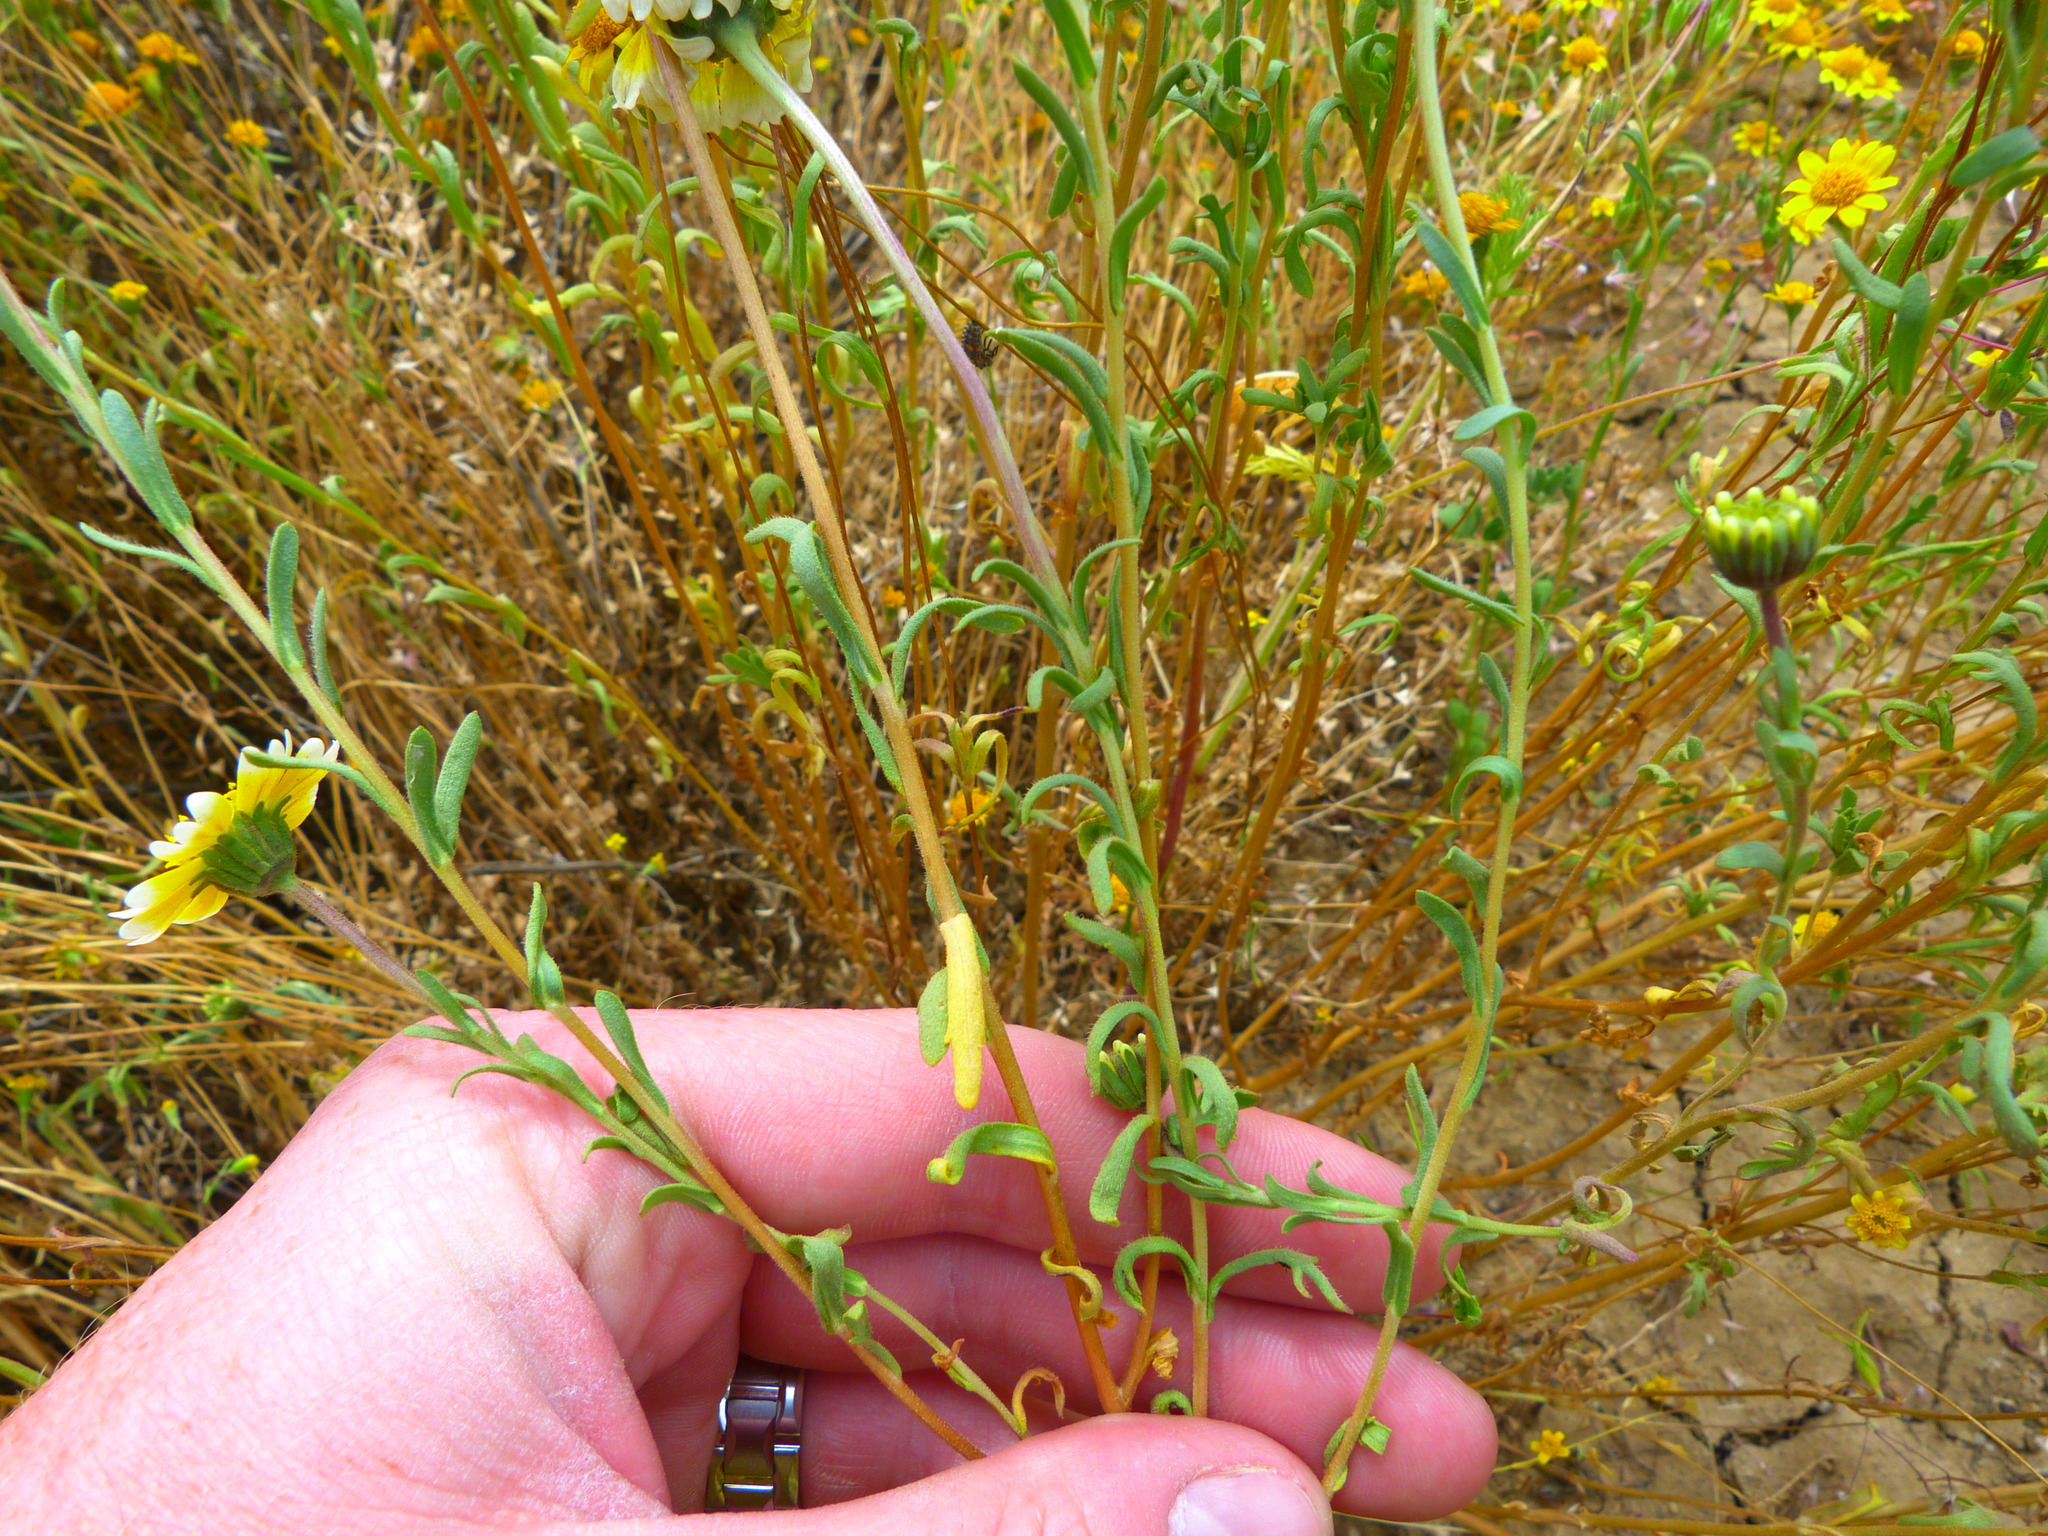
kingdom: Plantae
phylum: Tracheophyta
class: Magnoliopsida
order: Asterales
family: Asteraceae
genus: Layia
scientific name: Layia munzii
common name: Munz's tidy-tips
